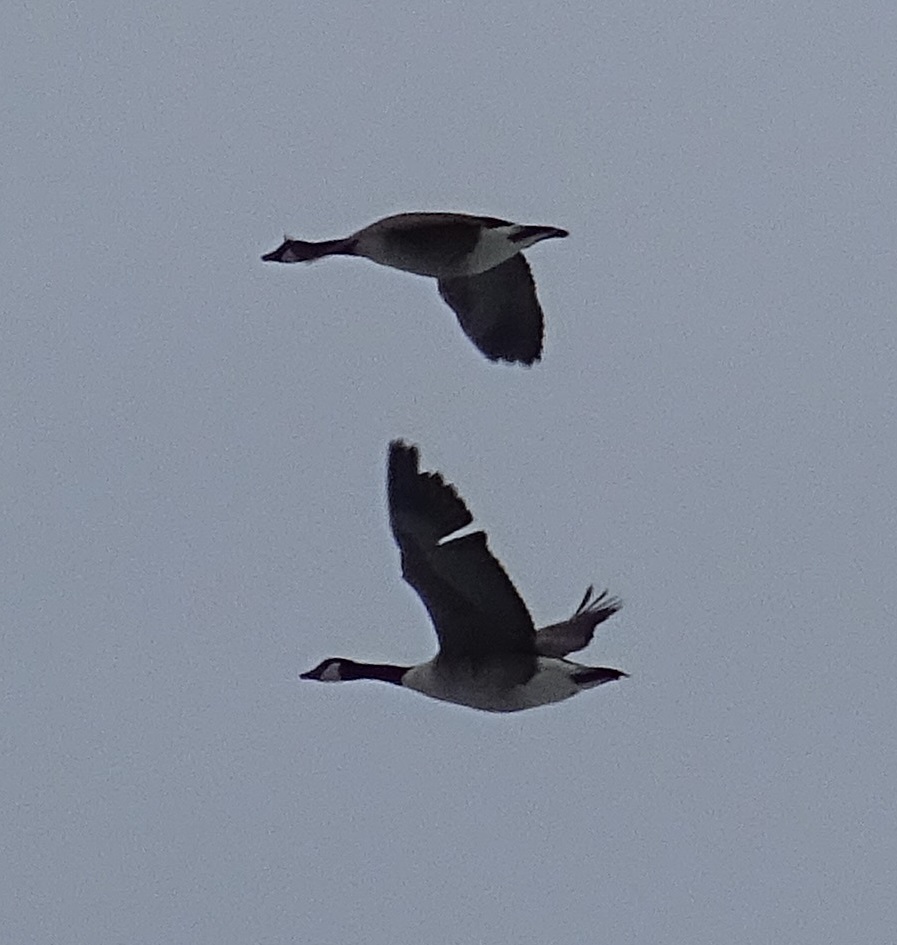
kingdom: Animalia
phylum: Chordata
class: Aves
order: Anseriformes
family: Anatidae
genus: Branta
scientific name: Branta canadensis
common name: Canada goose
